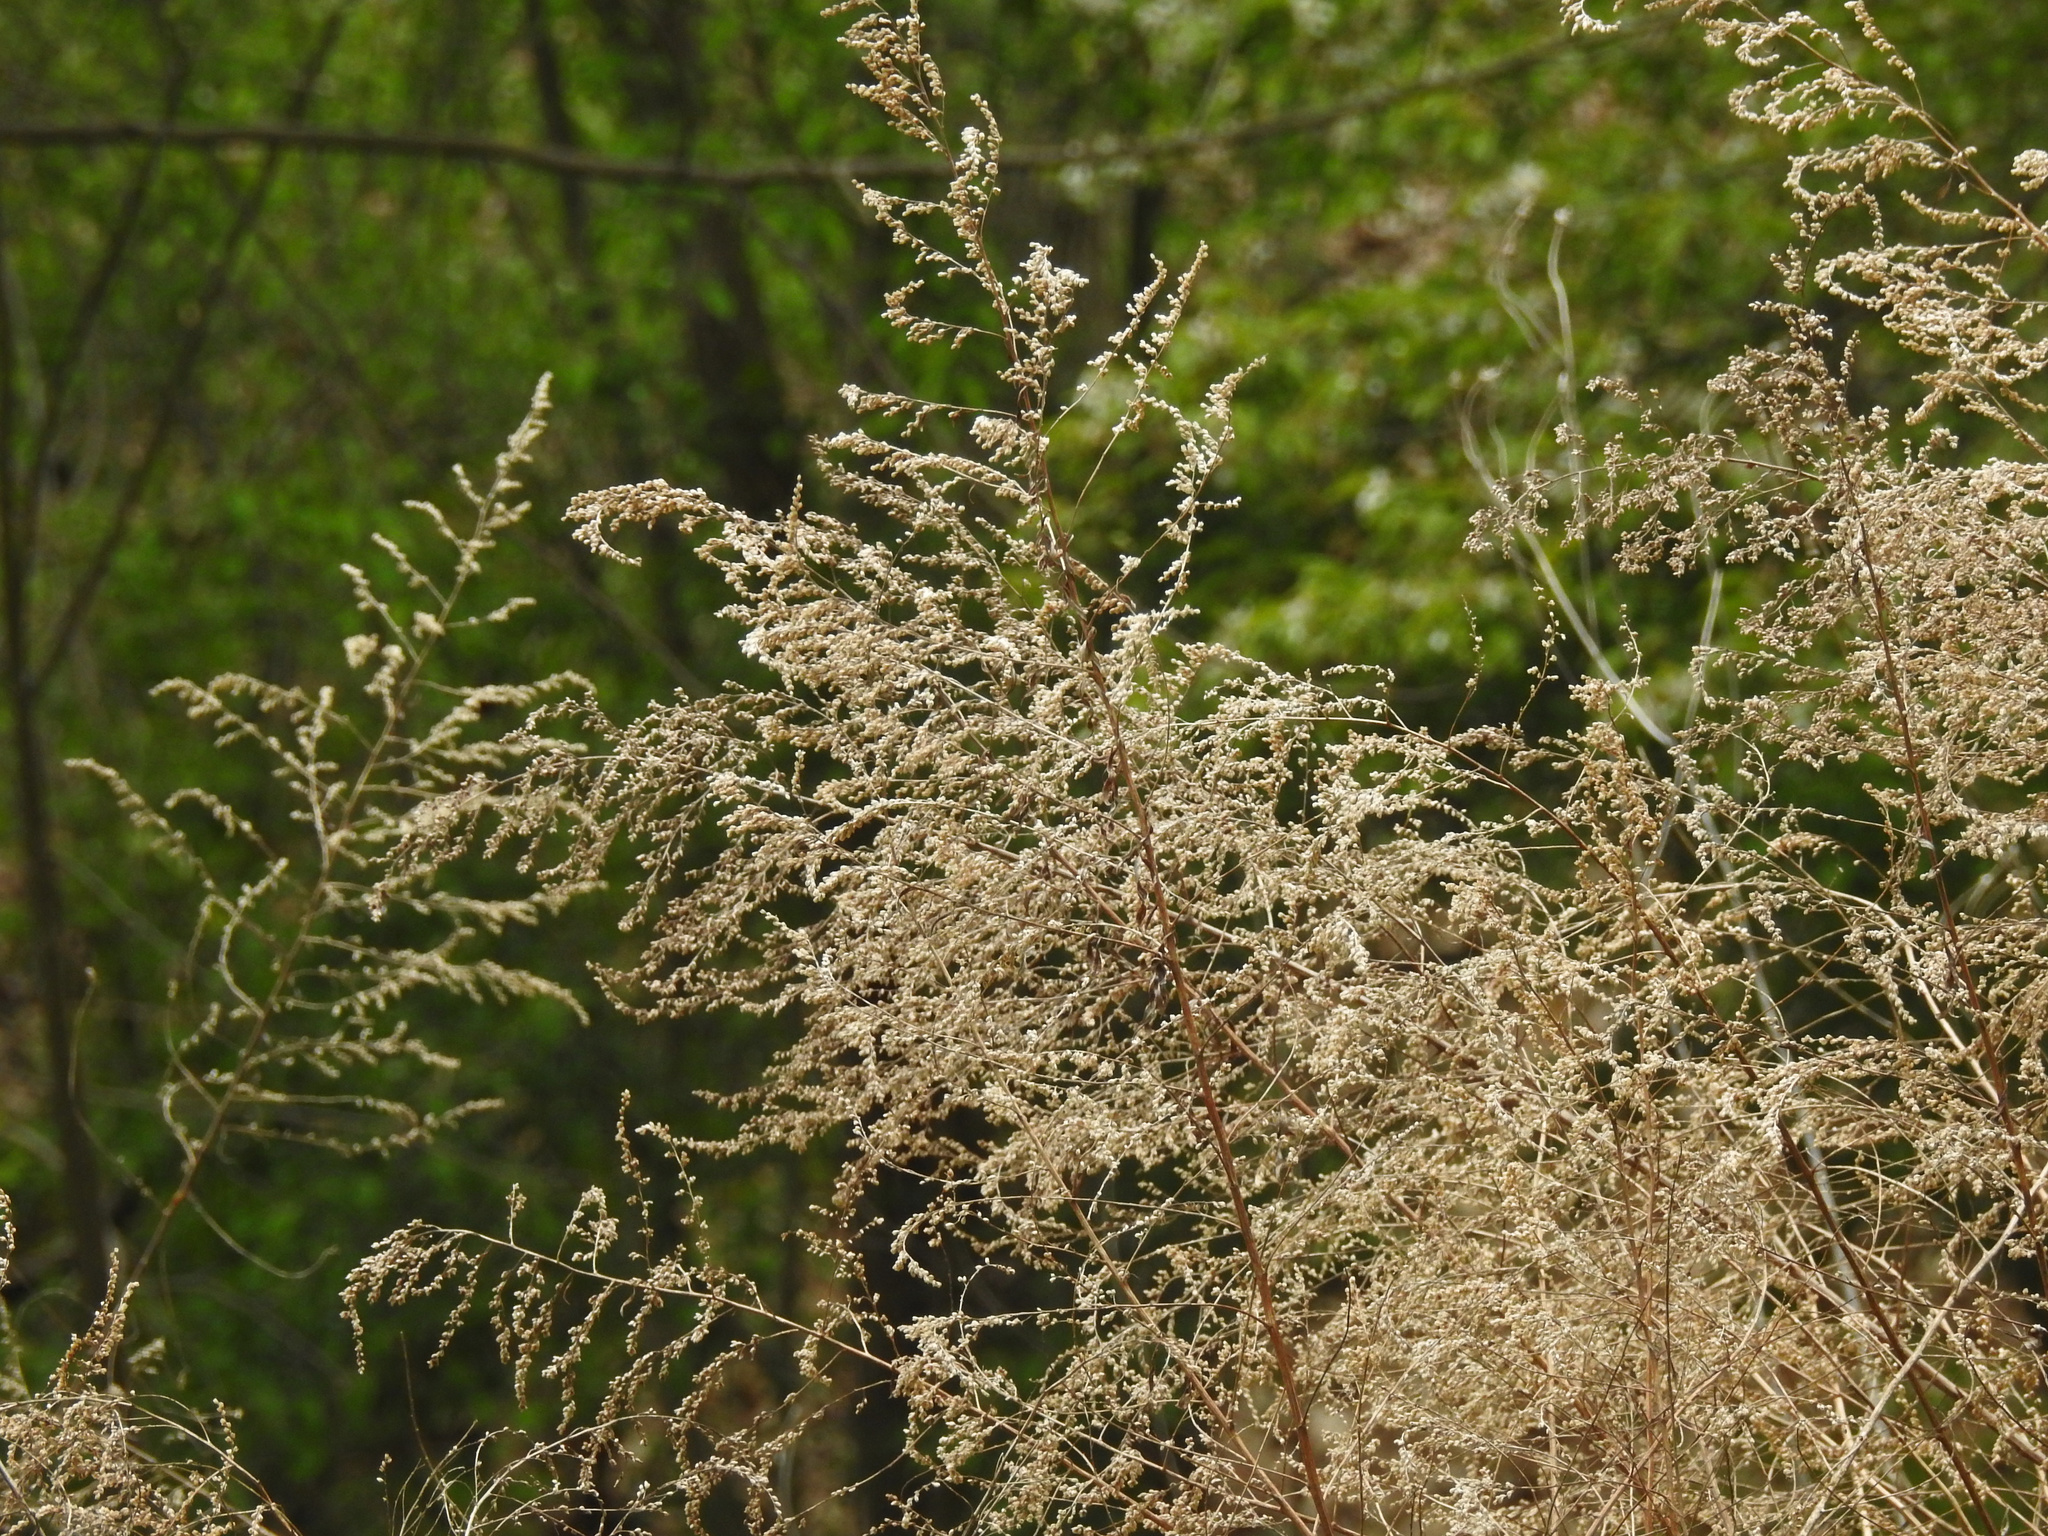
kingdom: Plantae
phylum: Tracheophyta
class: Magnoliopsida
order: Asterales
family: Asteraceae
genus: Artemisia
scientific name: Artemisia vulgaris
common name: Mugwort
